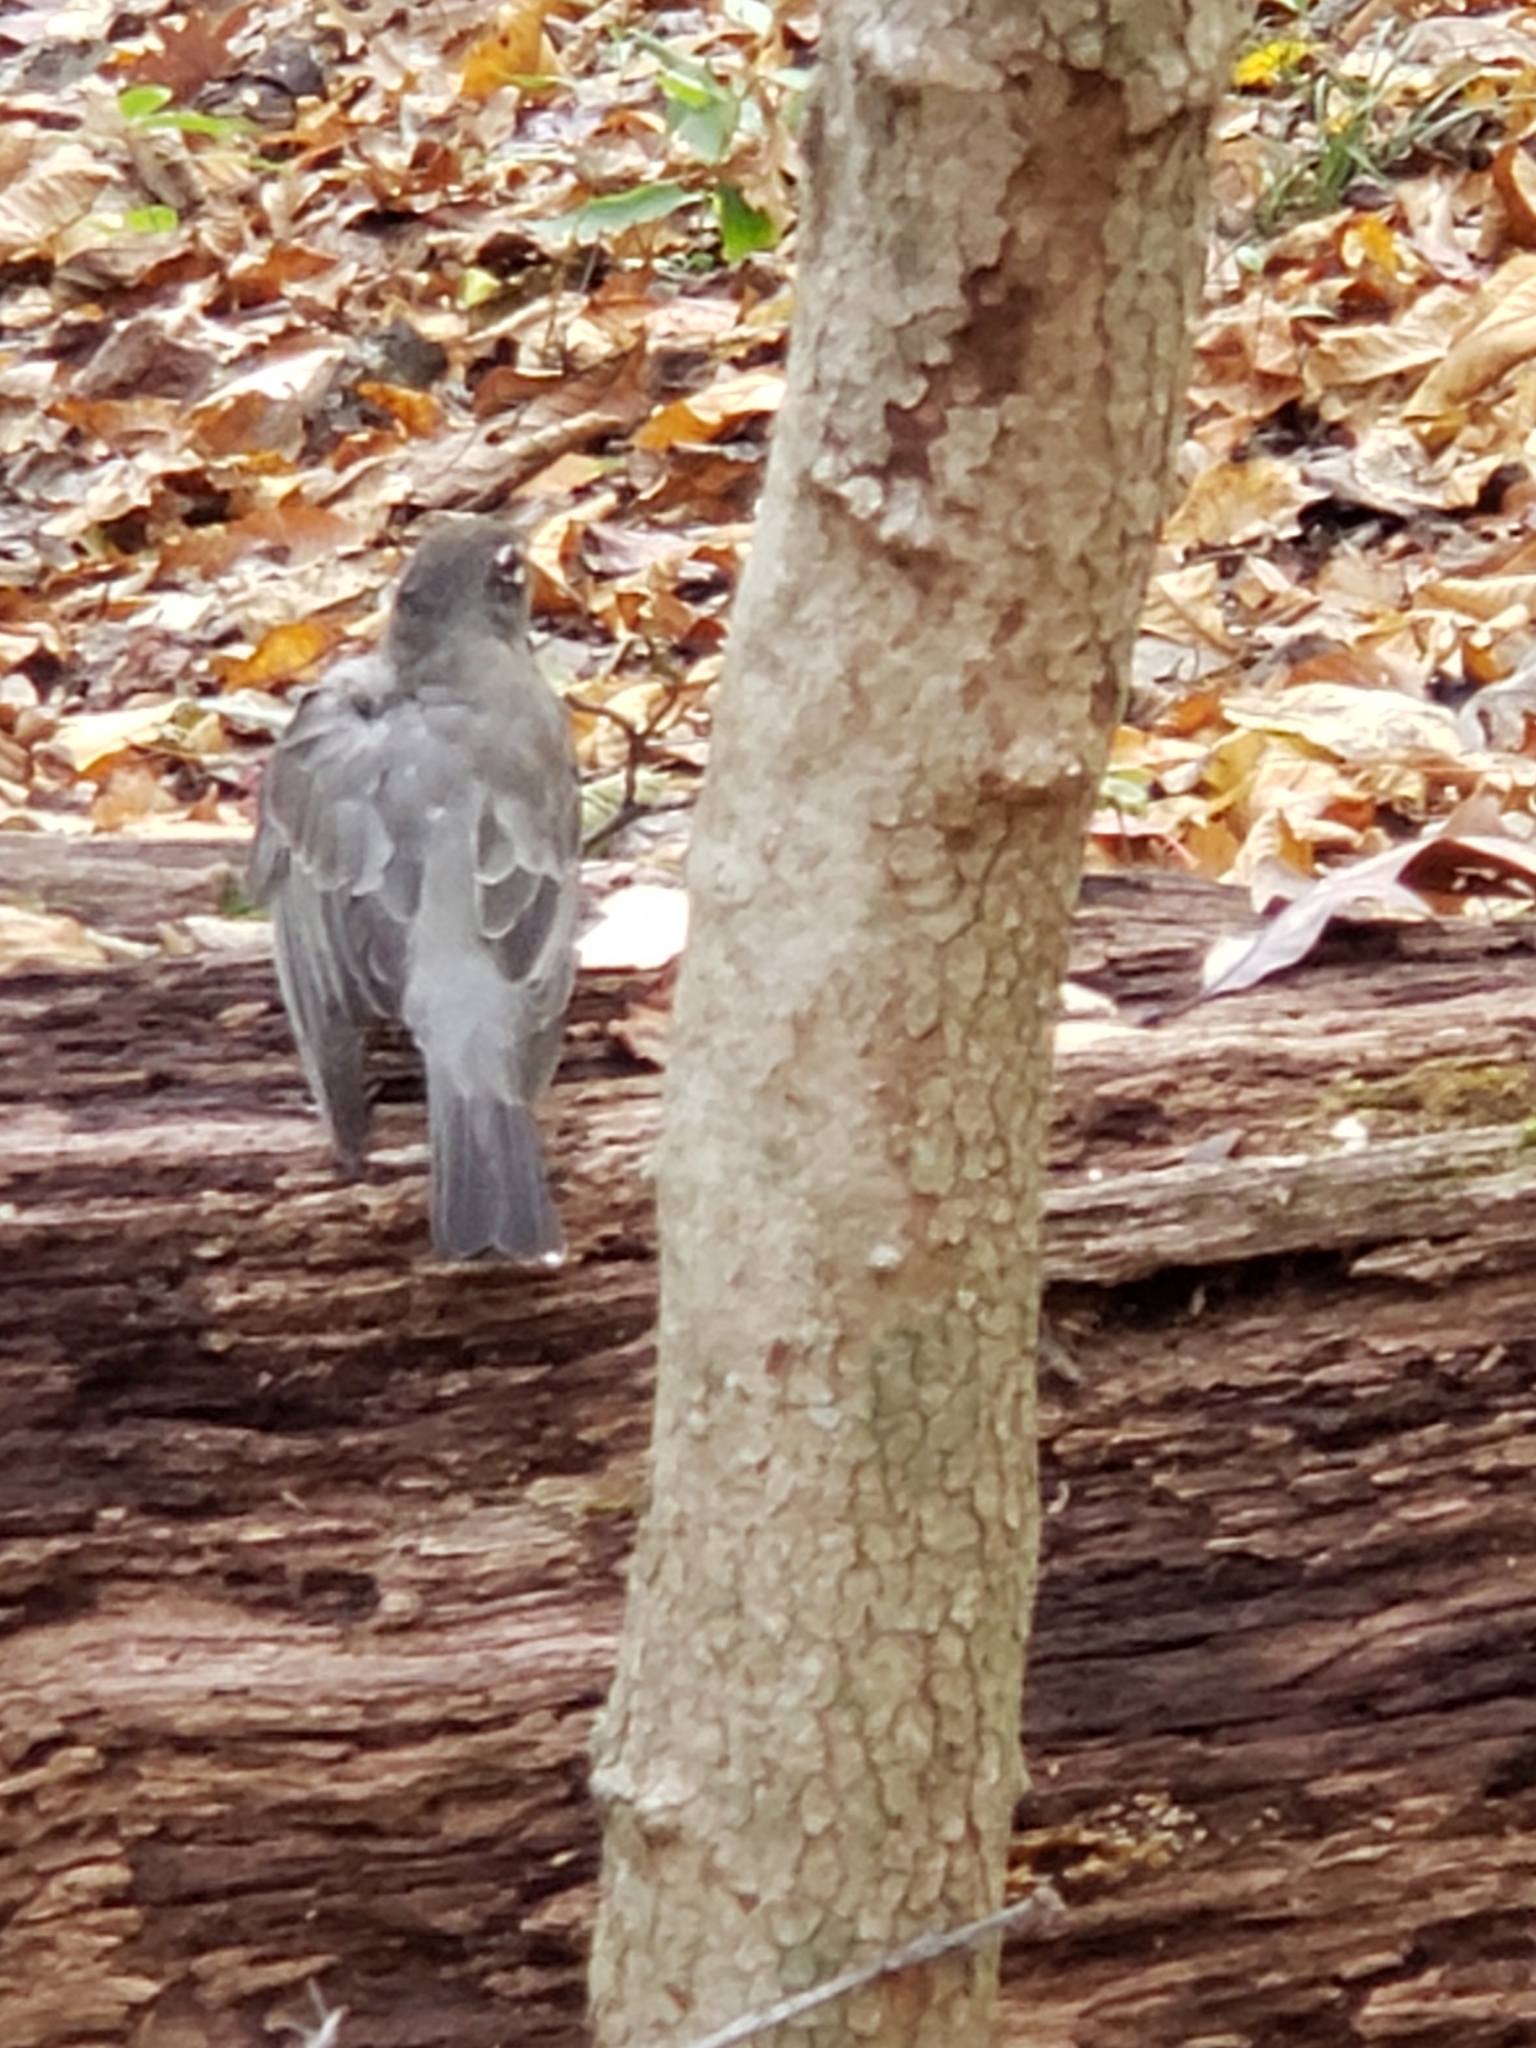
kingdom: Animalia
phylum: Chordata
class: Aves
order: Passeriformes
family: Turdidae
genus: Turdus
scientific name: Turdus migratorius
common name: American robin
